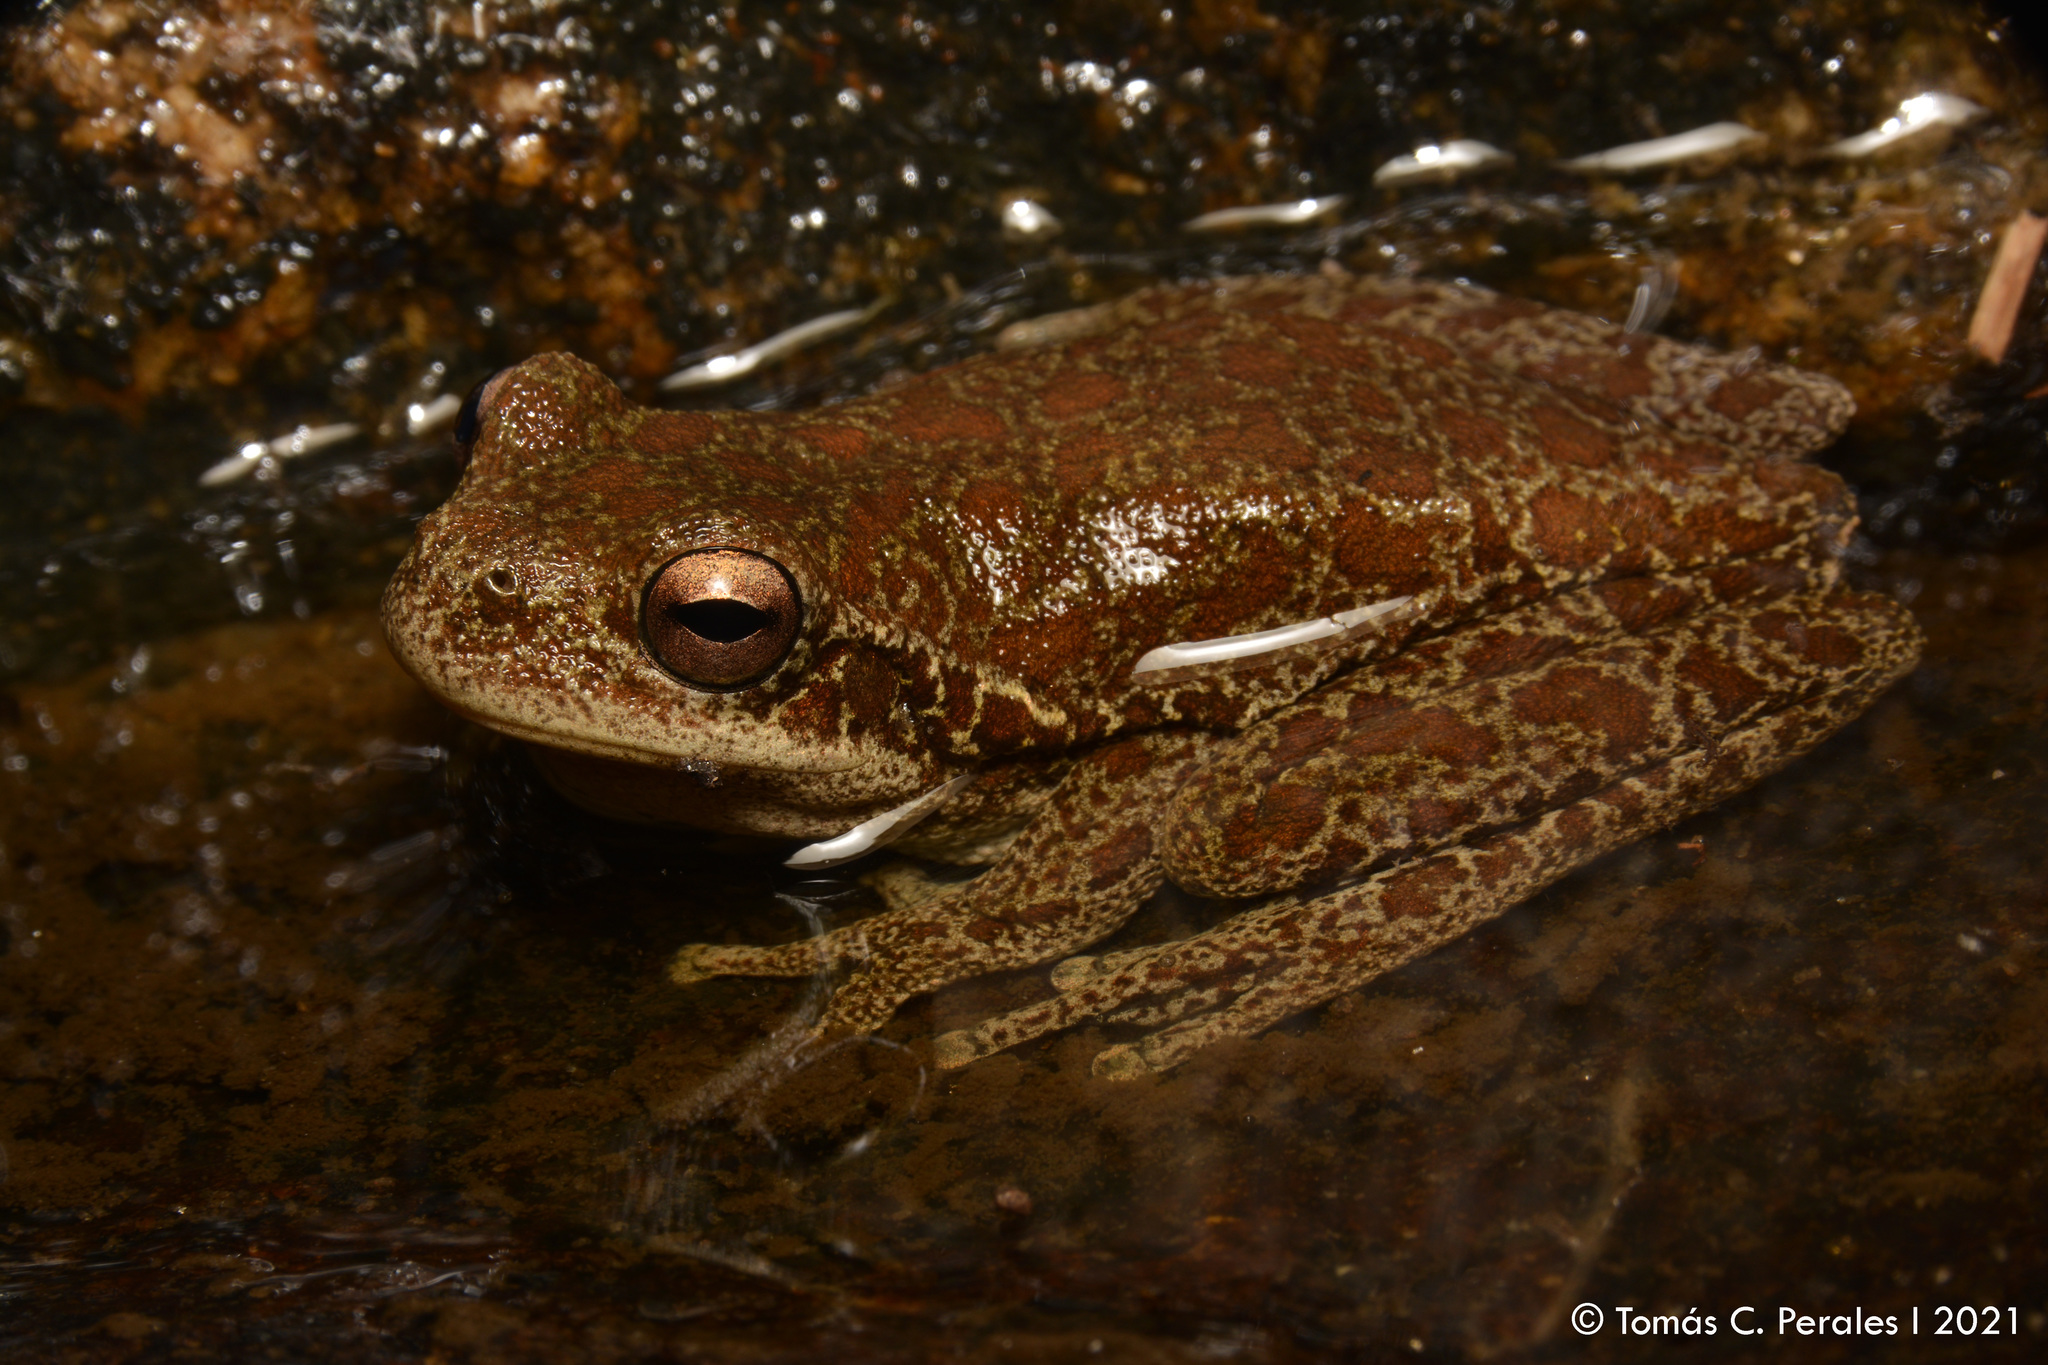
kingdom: Animalia
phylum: Chordata
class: Amphibia
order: Anura
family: Hylidae
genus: Boana
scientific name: Boana cordobae
